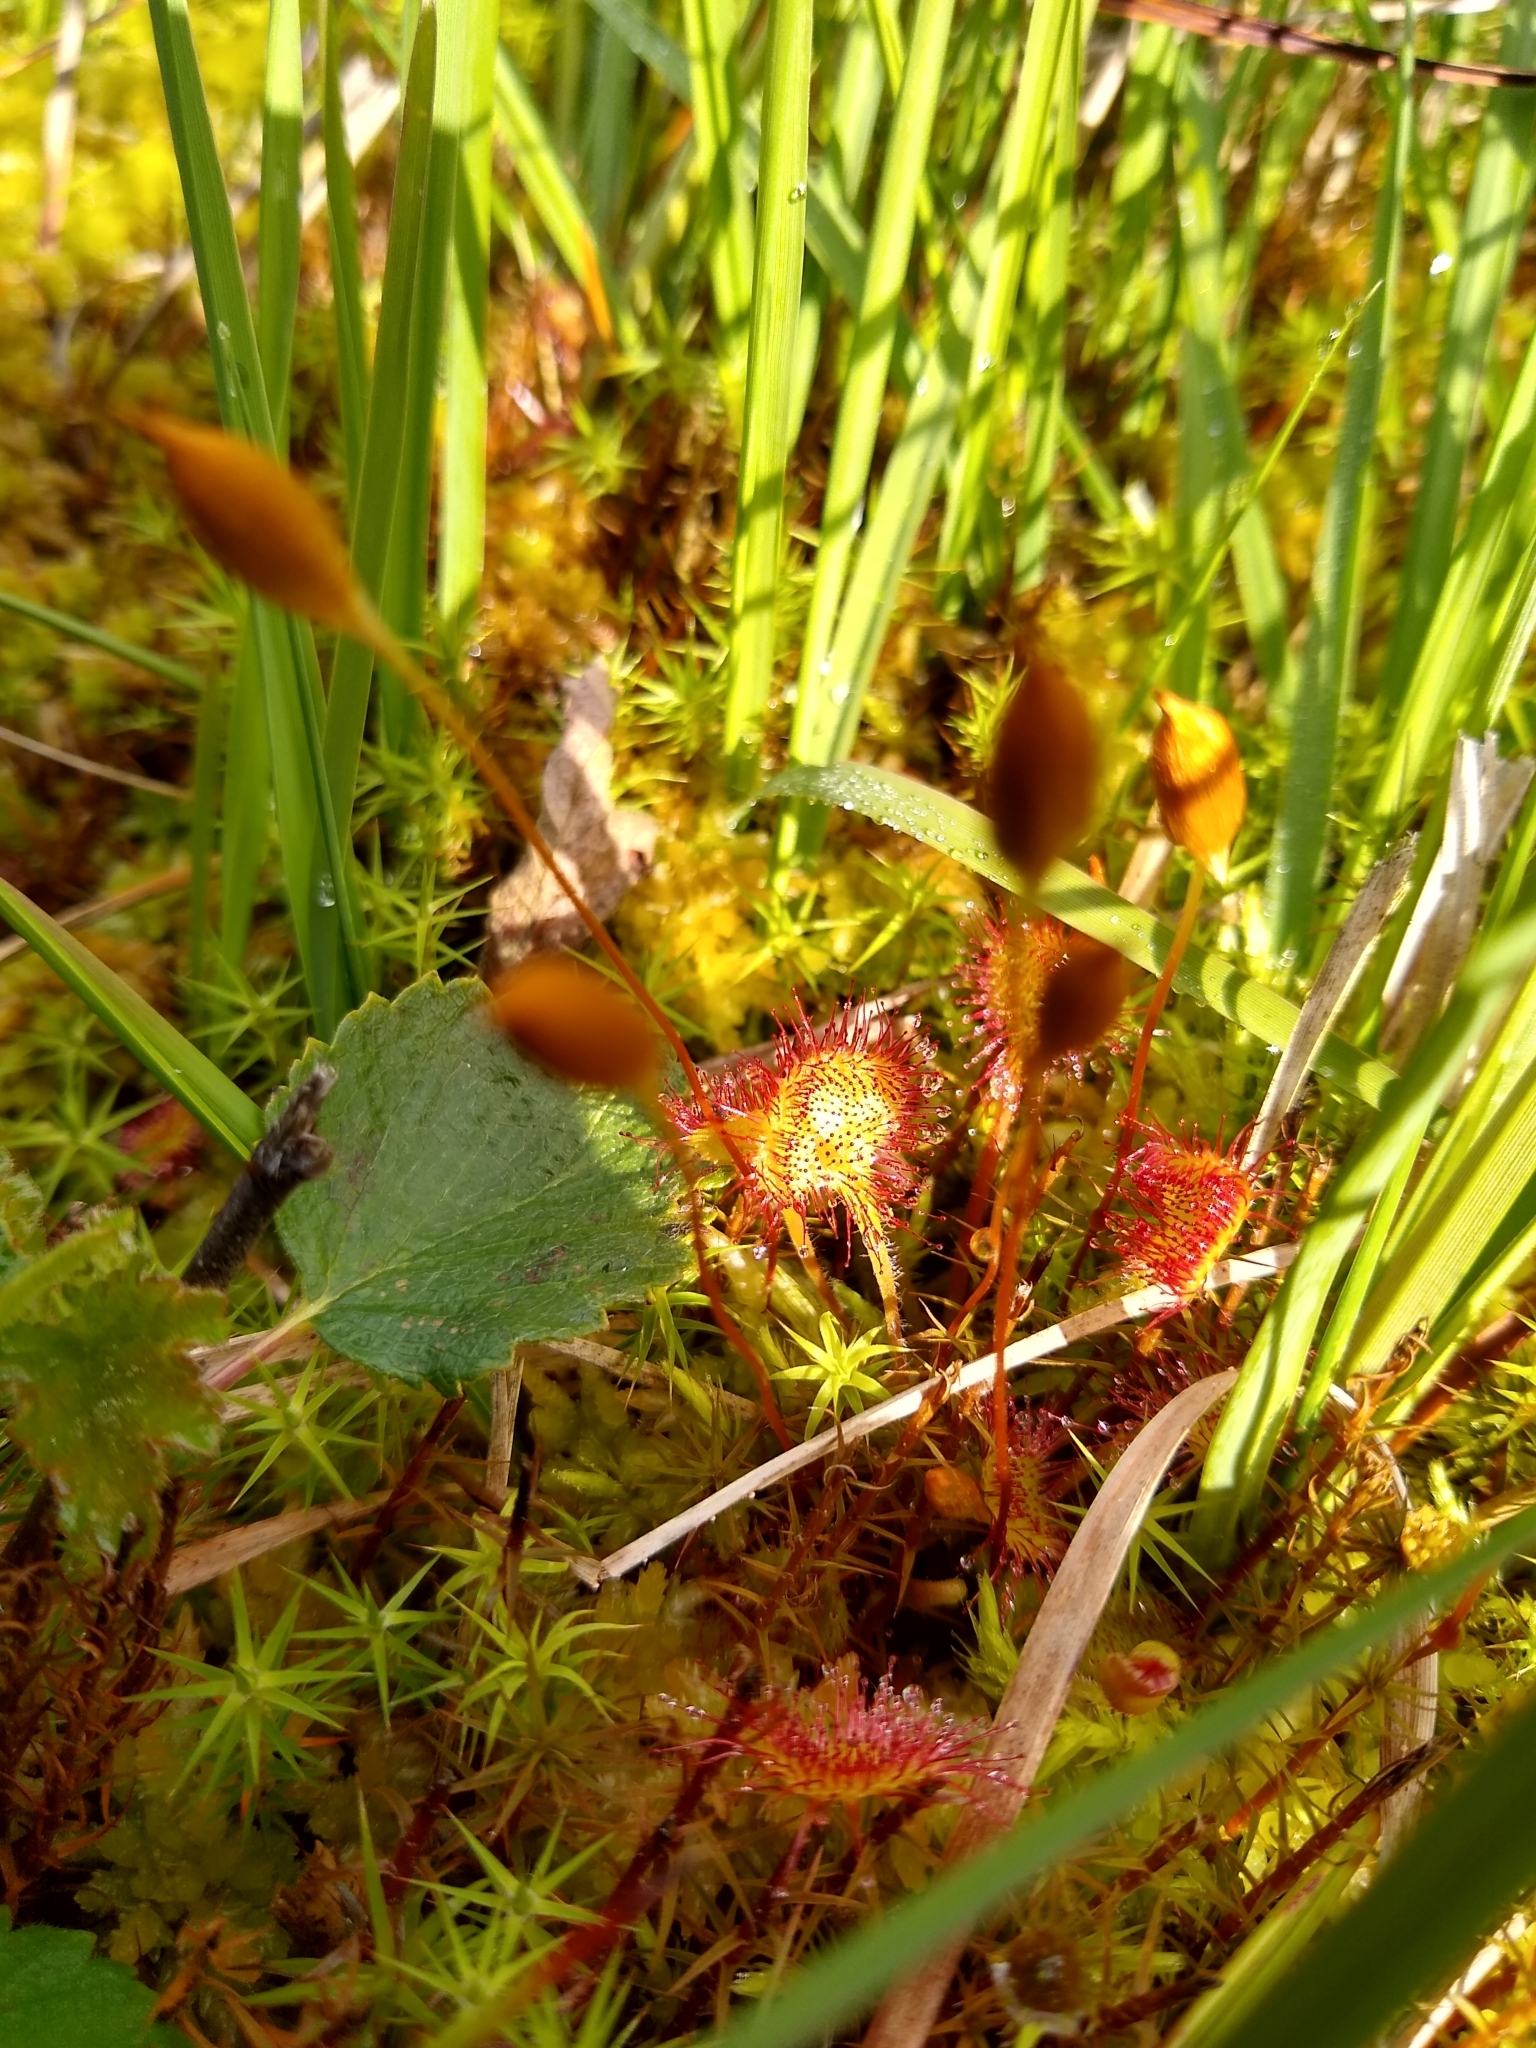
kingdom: Plantae
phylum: Tracheophyta
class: Magnoliopsida
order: Caryophyllales
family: Droseraceae
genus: Drosera
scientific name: Drosera rotundifolia
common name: Round-leaved sundew
